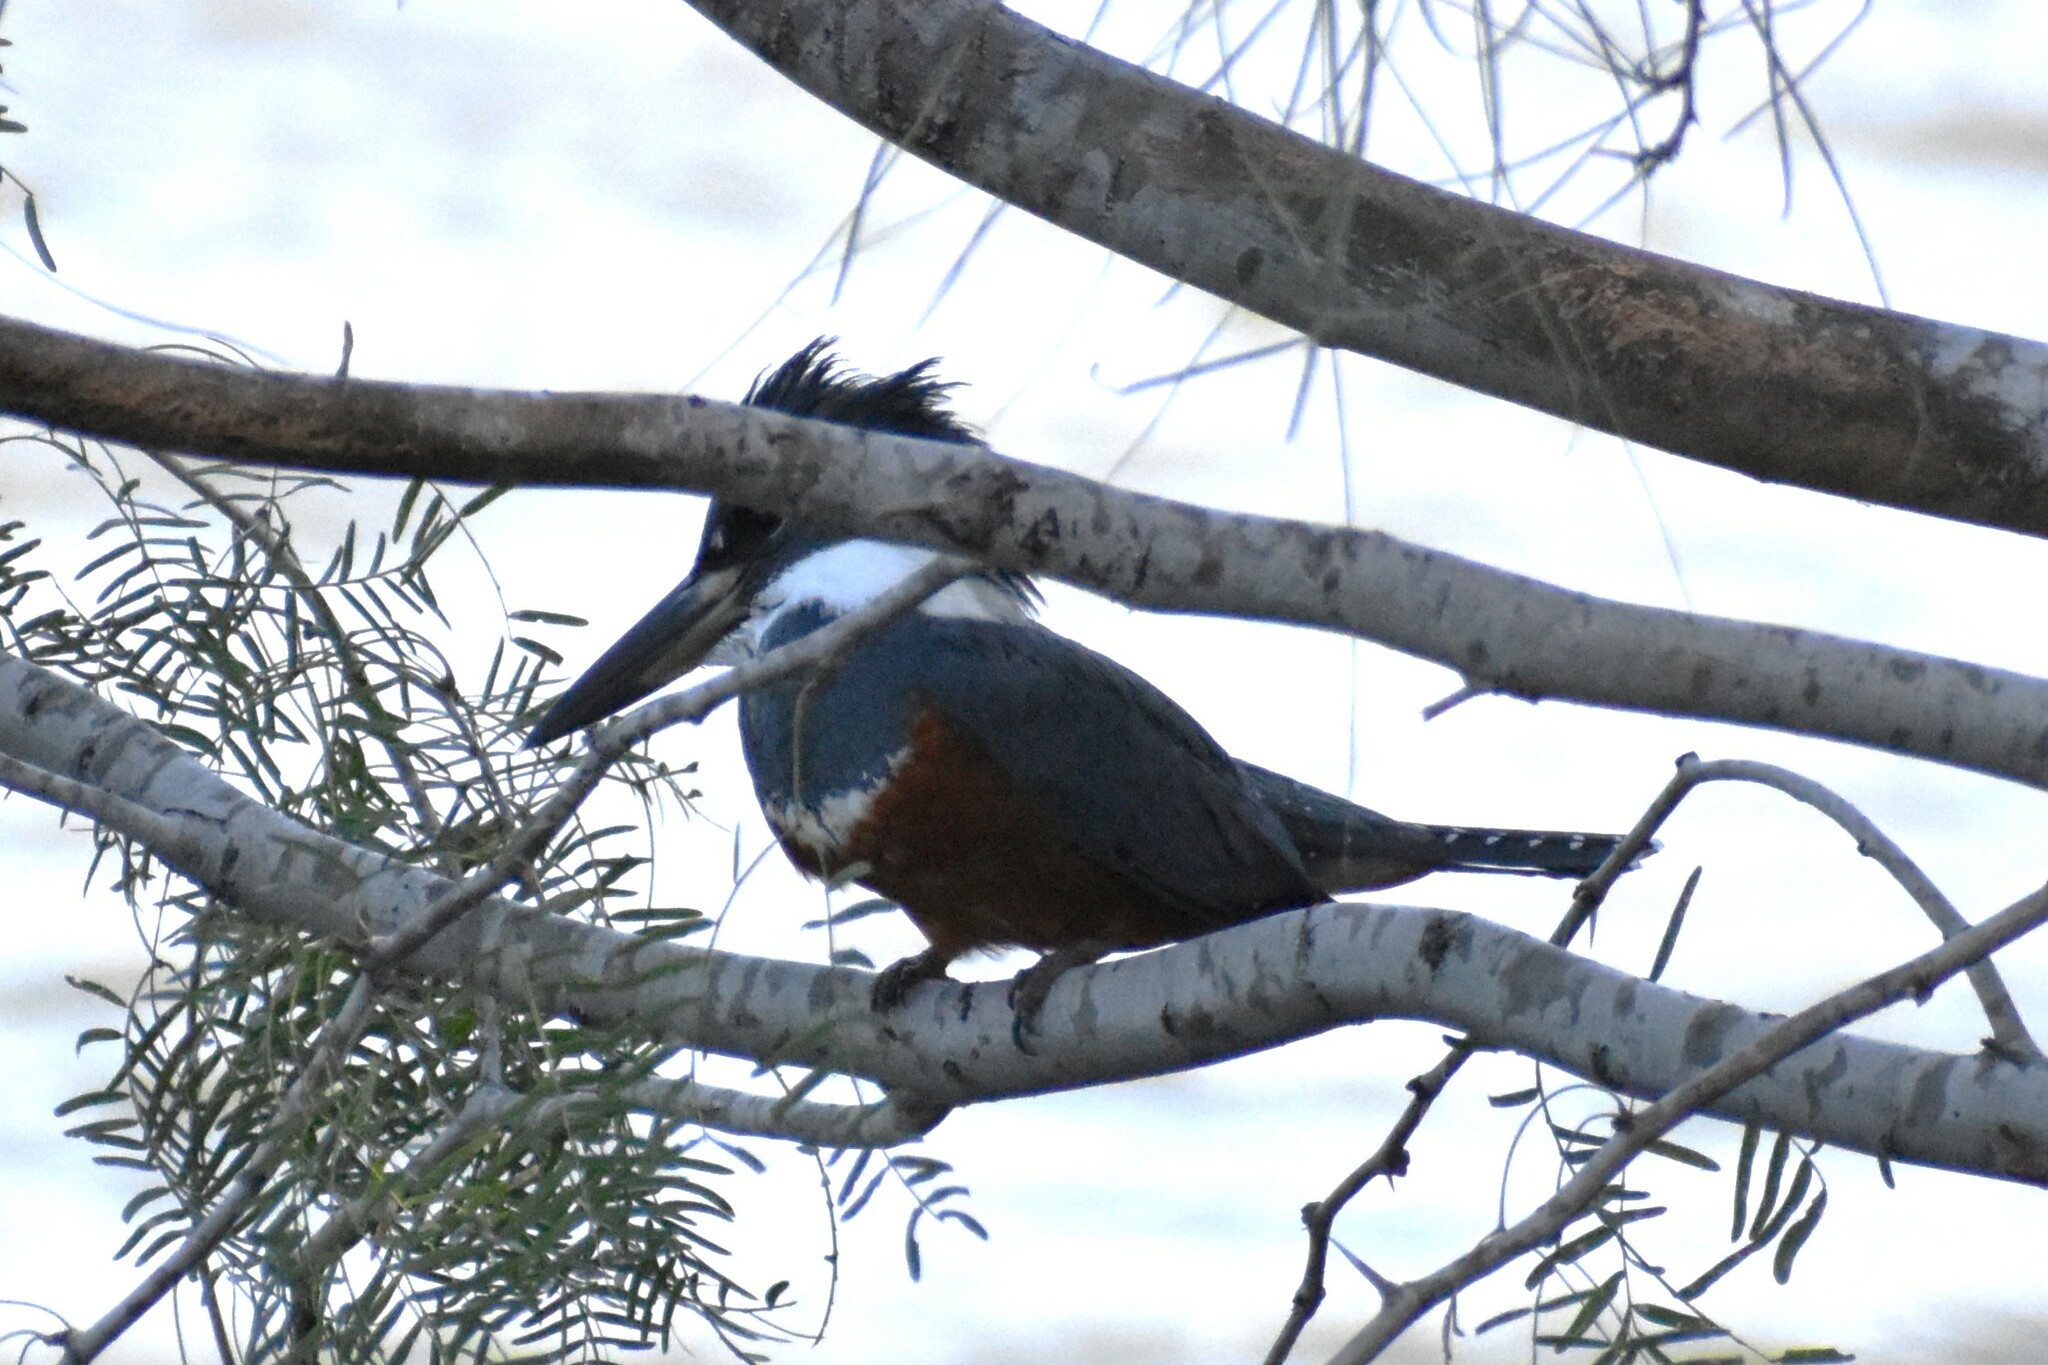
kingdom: Animalia
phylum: Chordata
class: Aves
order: Coraciiformes
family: Alcedinidae
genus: Megaceryle
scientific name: Megaceryle torquata
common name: Ringed kingfisher
